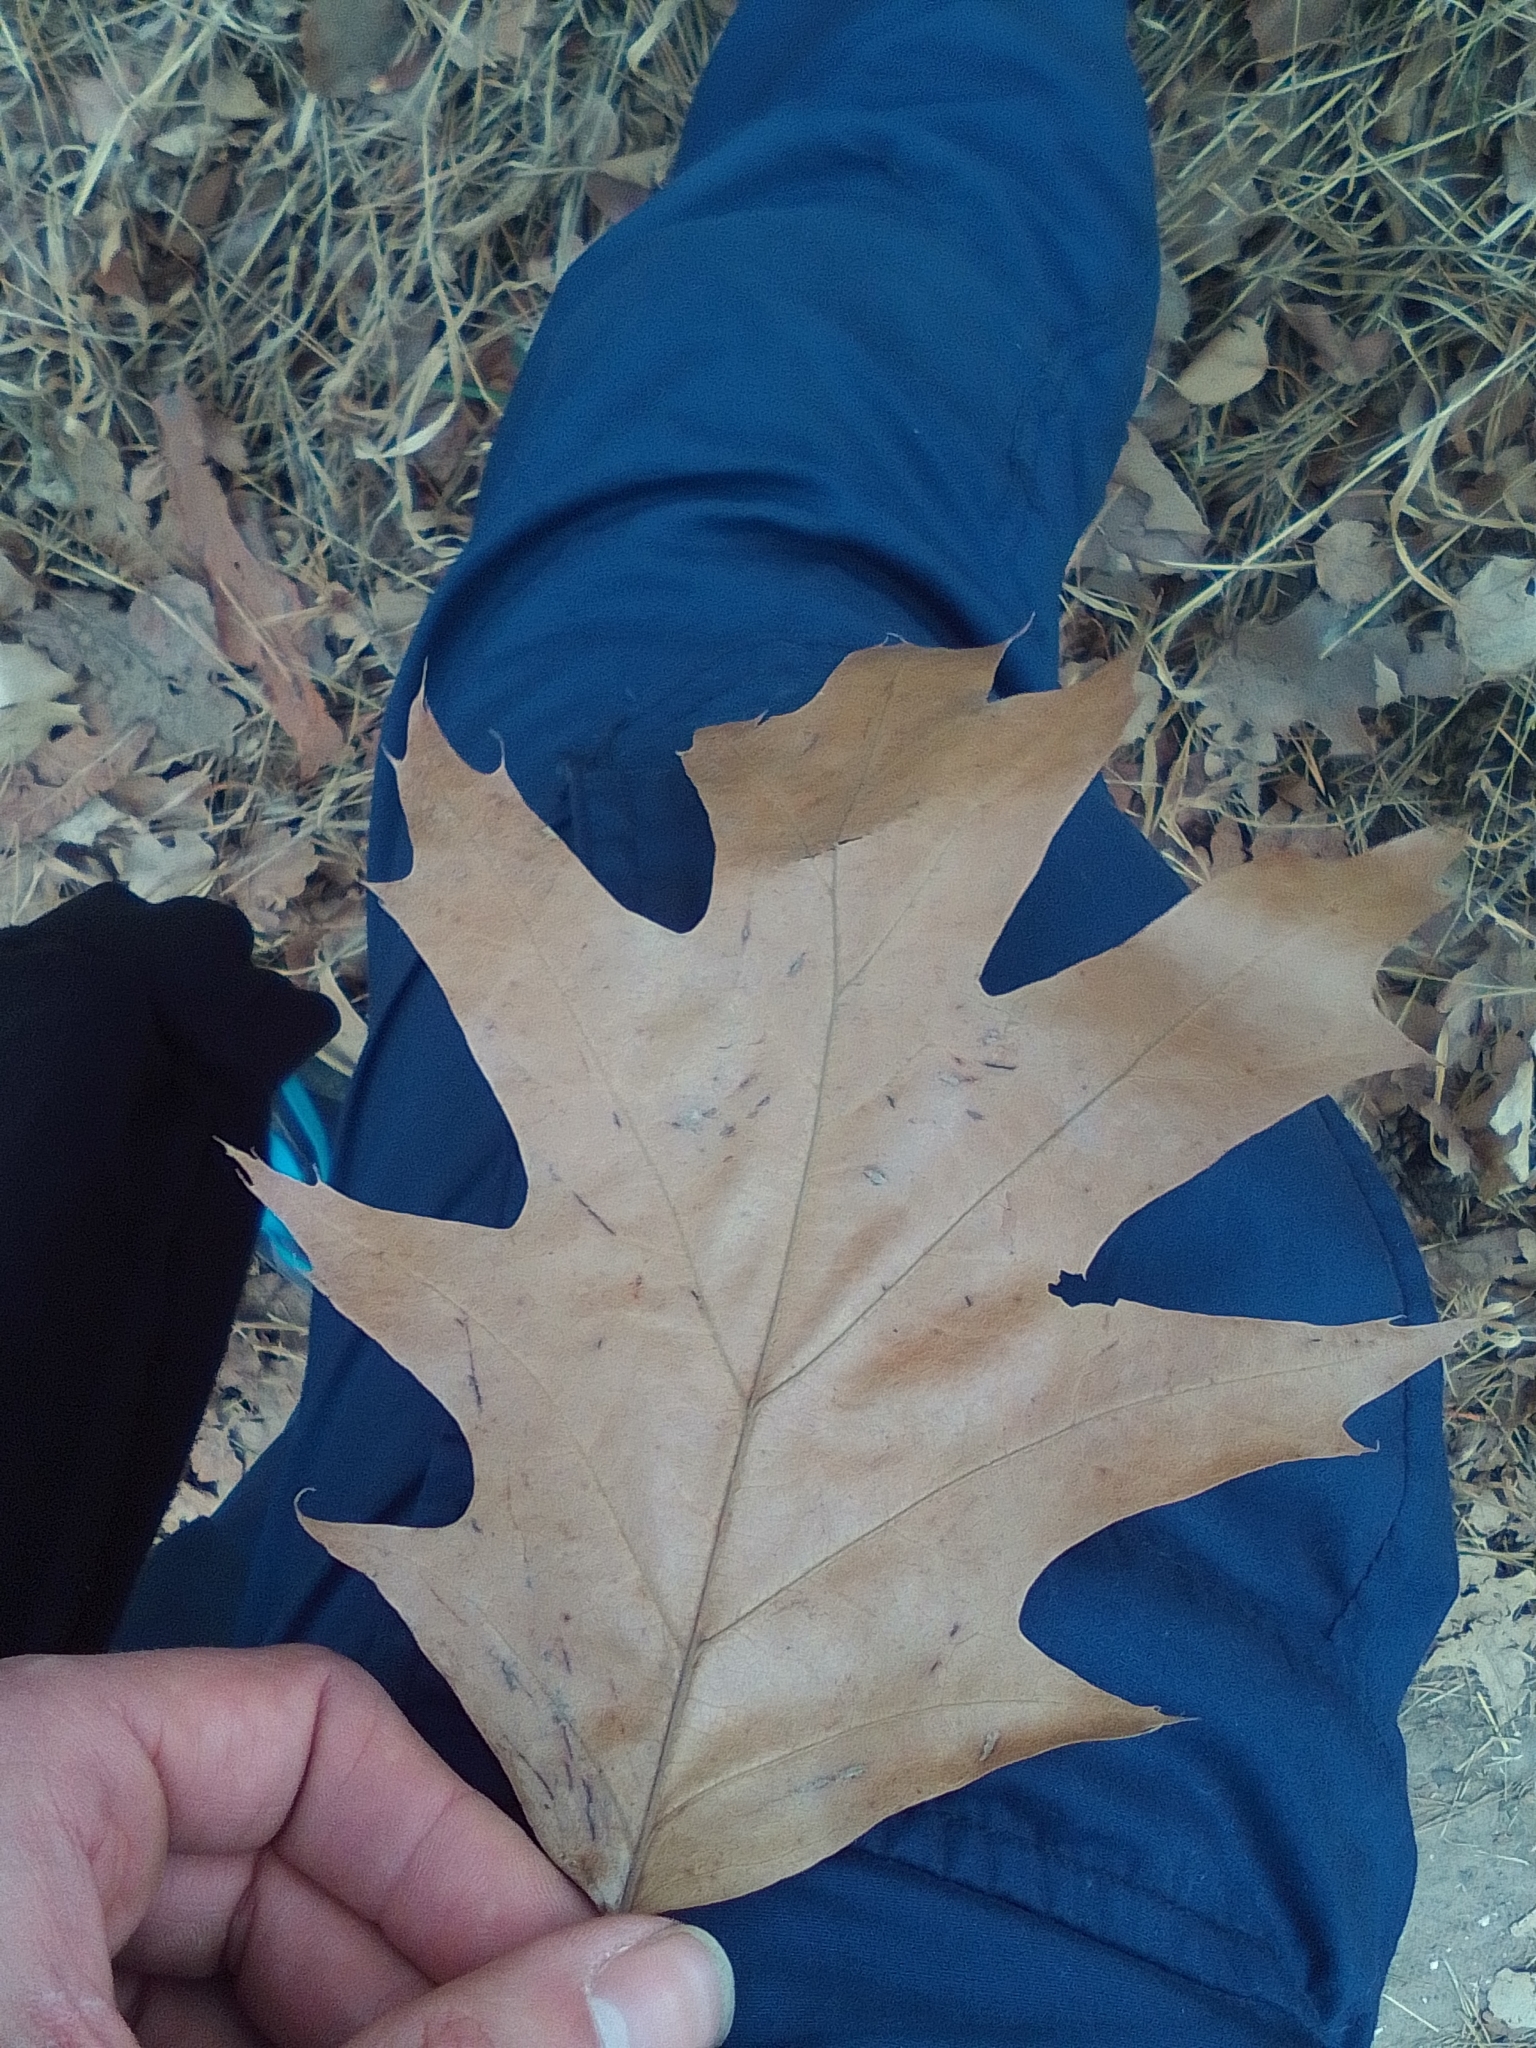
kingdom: Plantae
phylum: Tracheophyta
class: Magnoliopsida
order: Fagales
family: Fagaceae
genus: Quercus
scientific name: Quercus rubra
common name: Red oak
